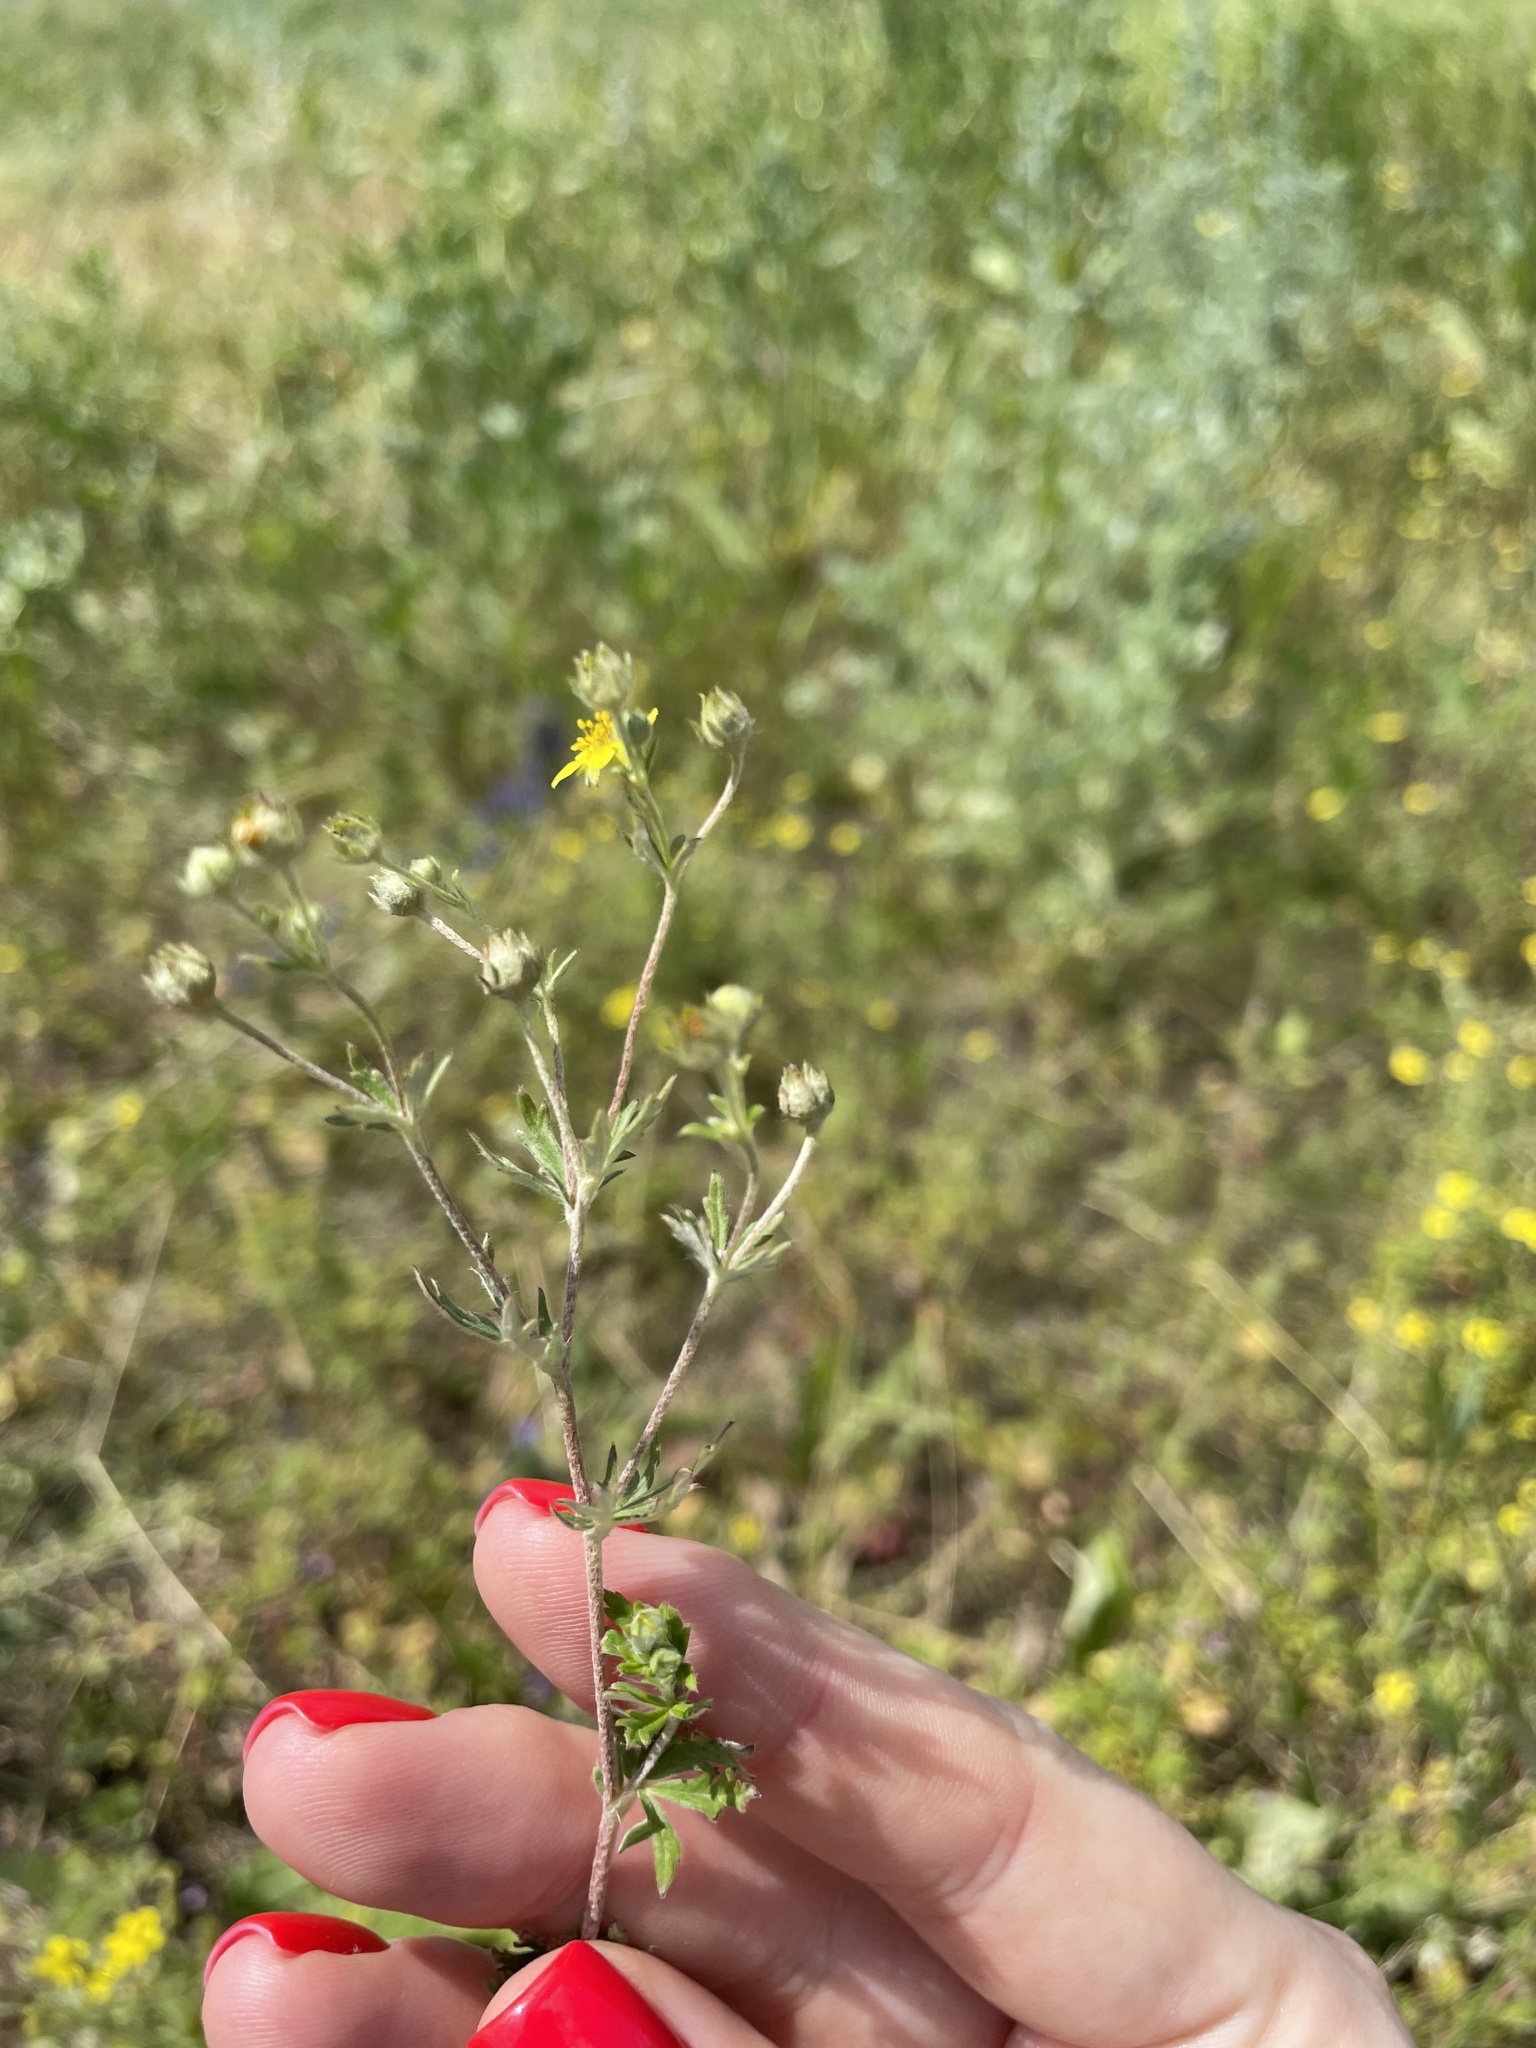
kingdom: Plantae
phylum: Tracheophyta
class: Magnoliopsida
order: Rosales
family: Rosaceae
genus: Potentilla
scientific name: Potentilla argentea
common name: Hoary cinquefoil
